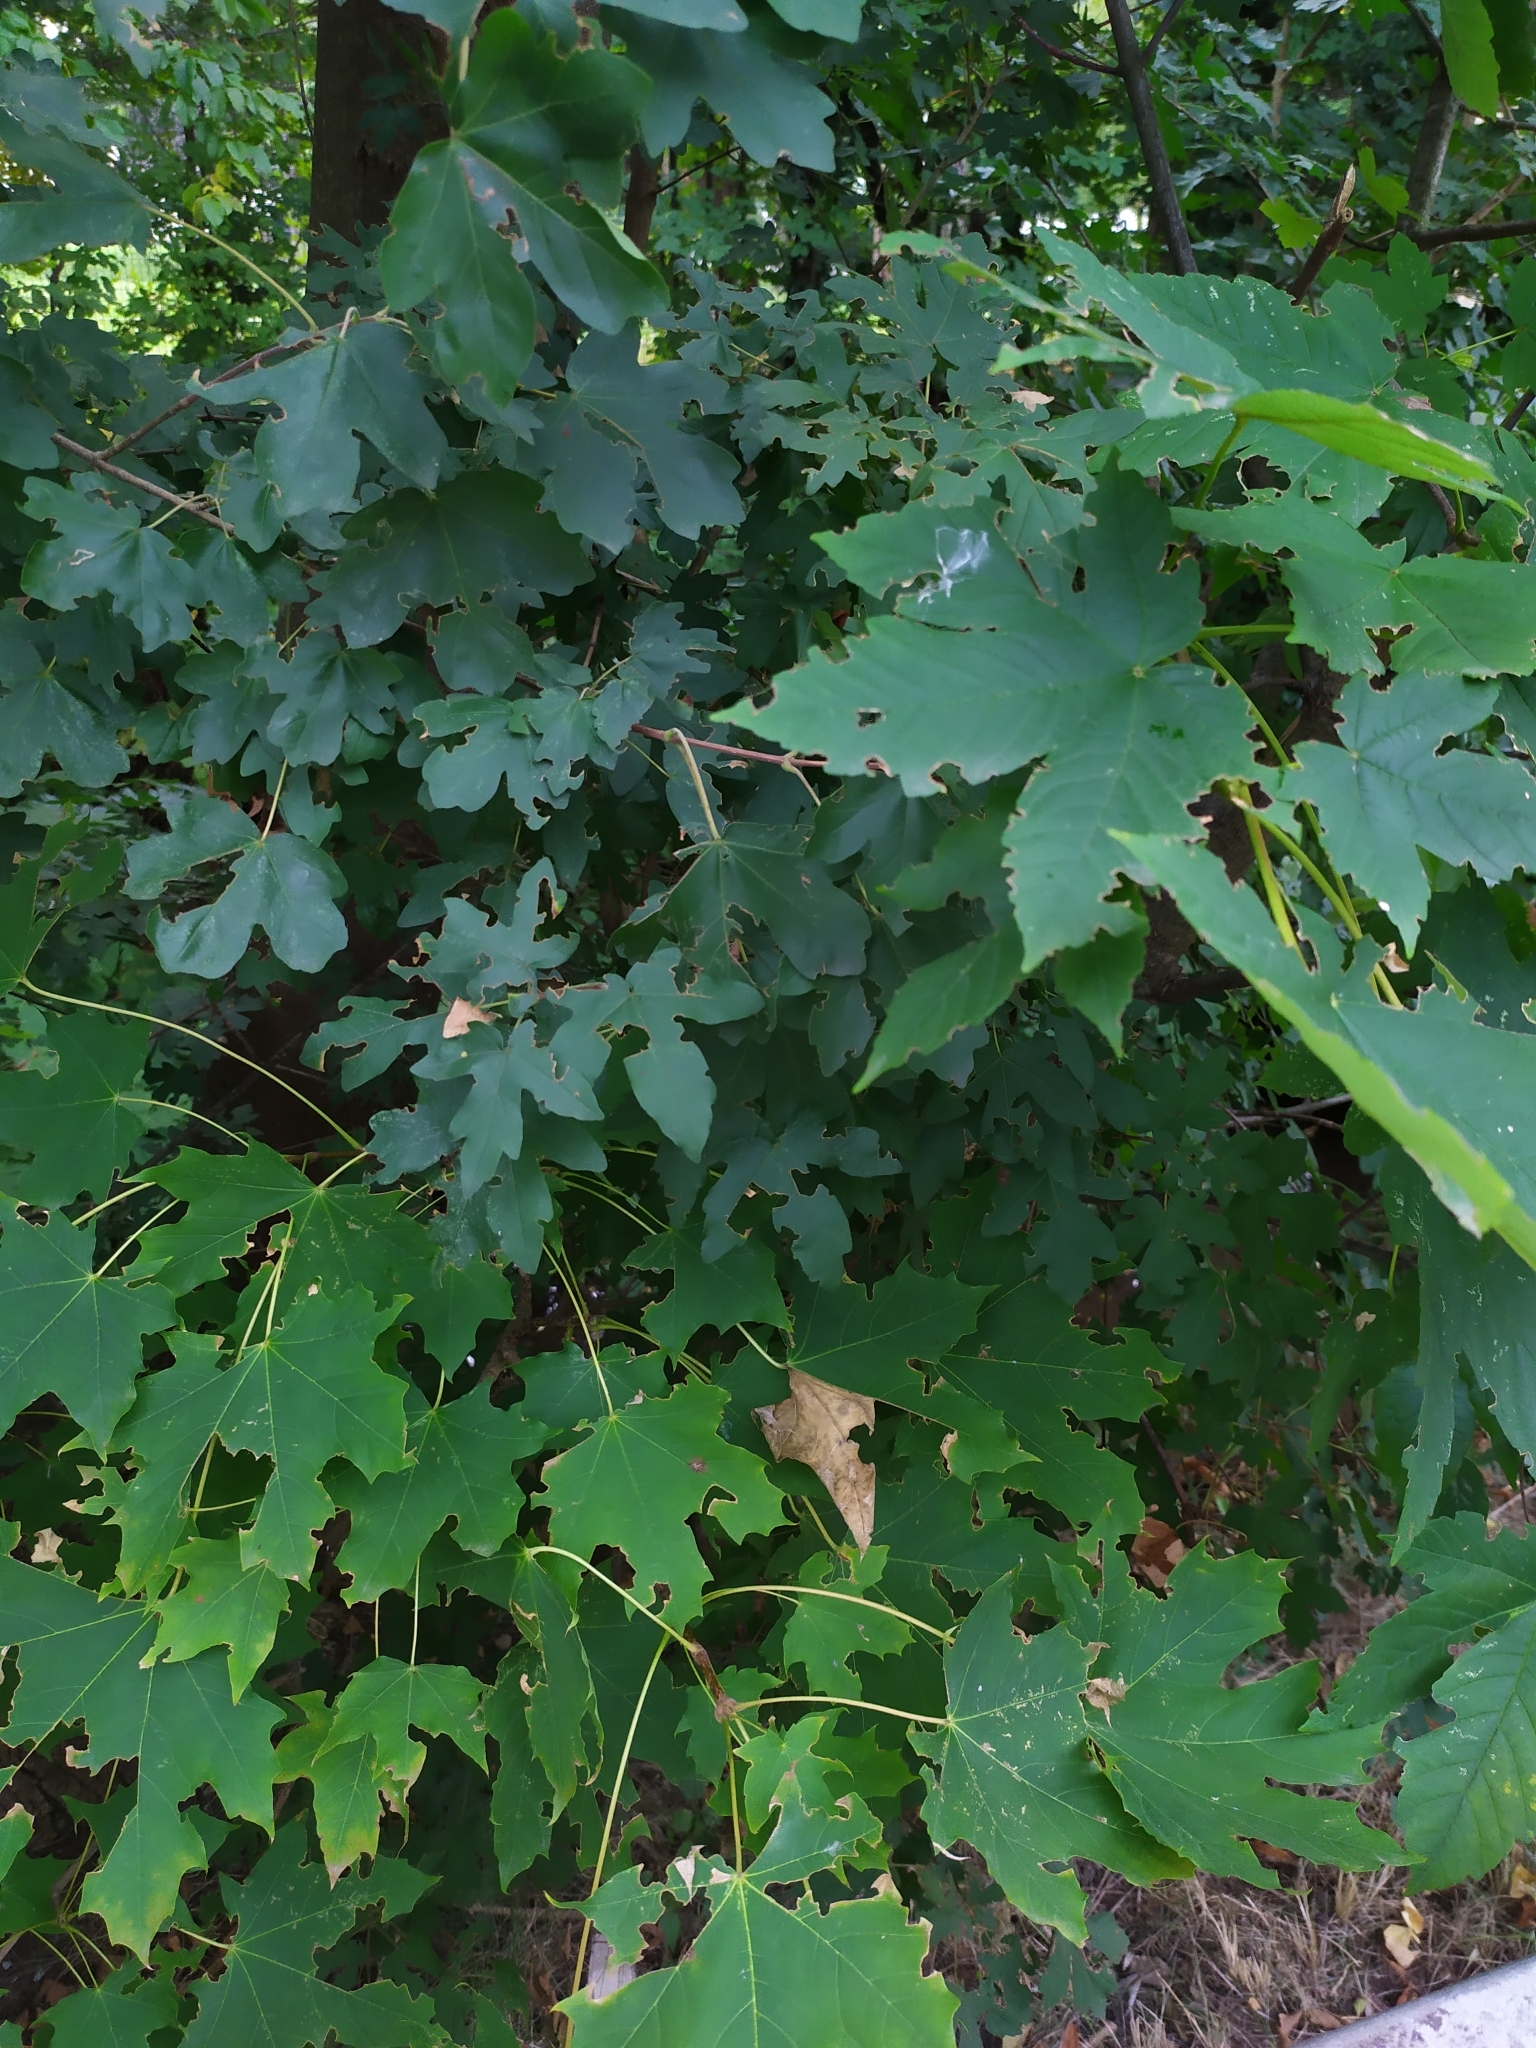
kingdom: Plantae
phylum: Tracheophyta
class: Magnoliopsida
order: Sapindales
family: Sapindaceae
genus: Acer
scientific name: Acer campestre
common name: Field maple
